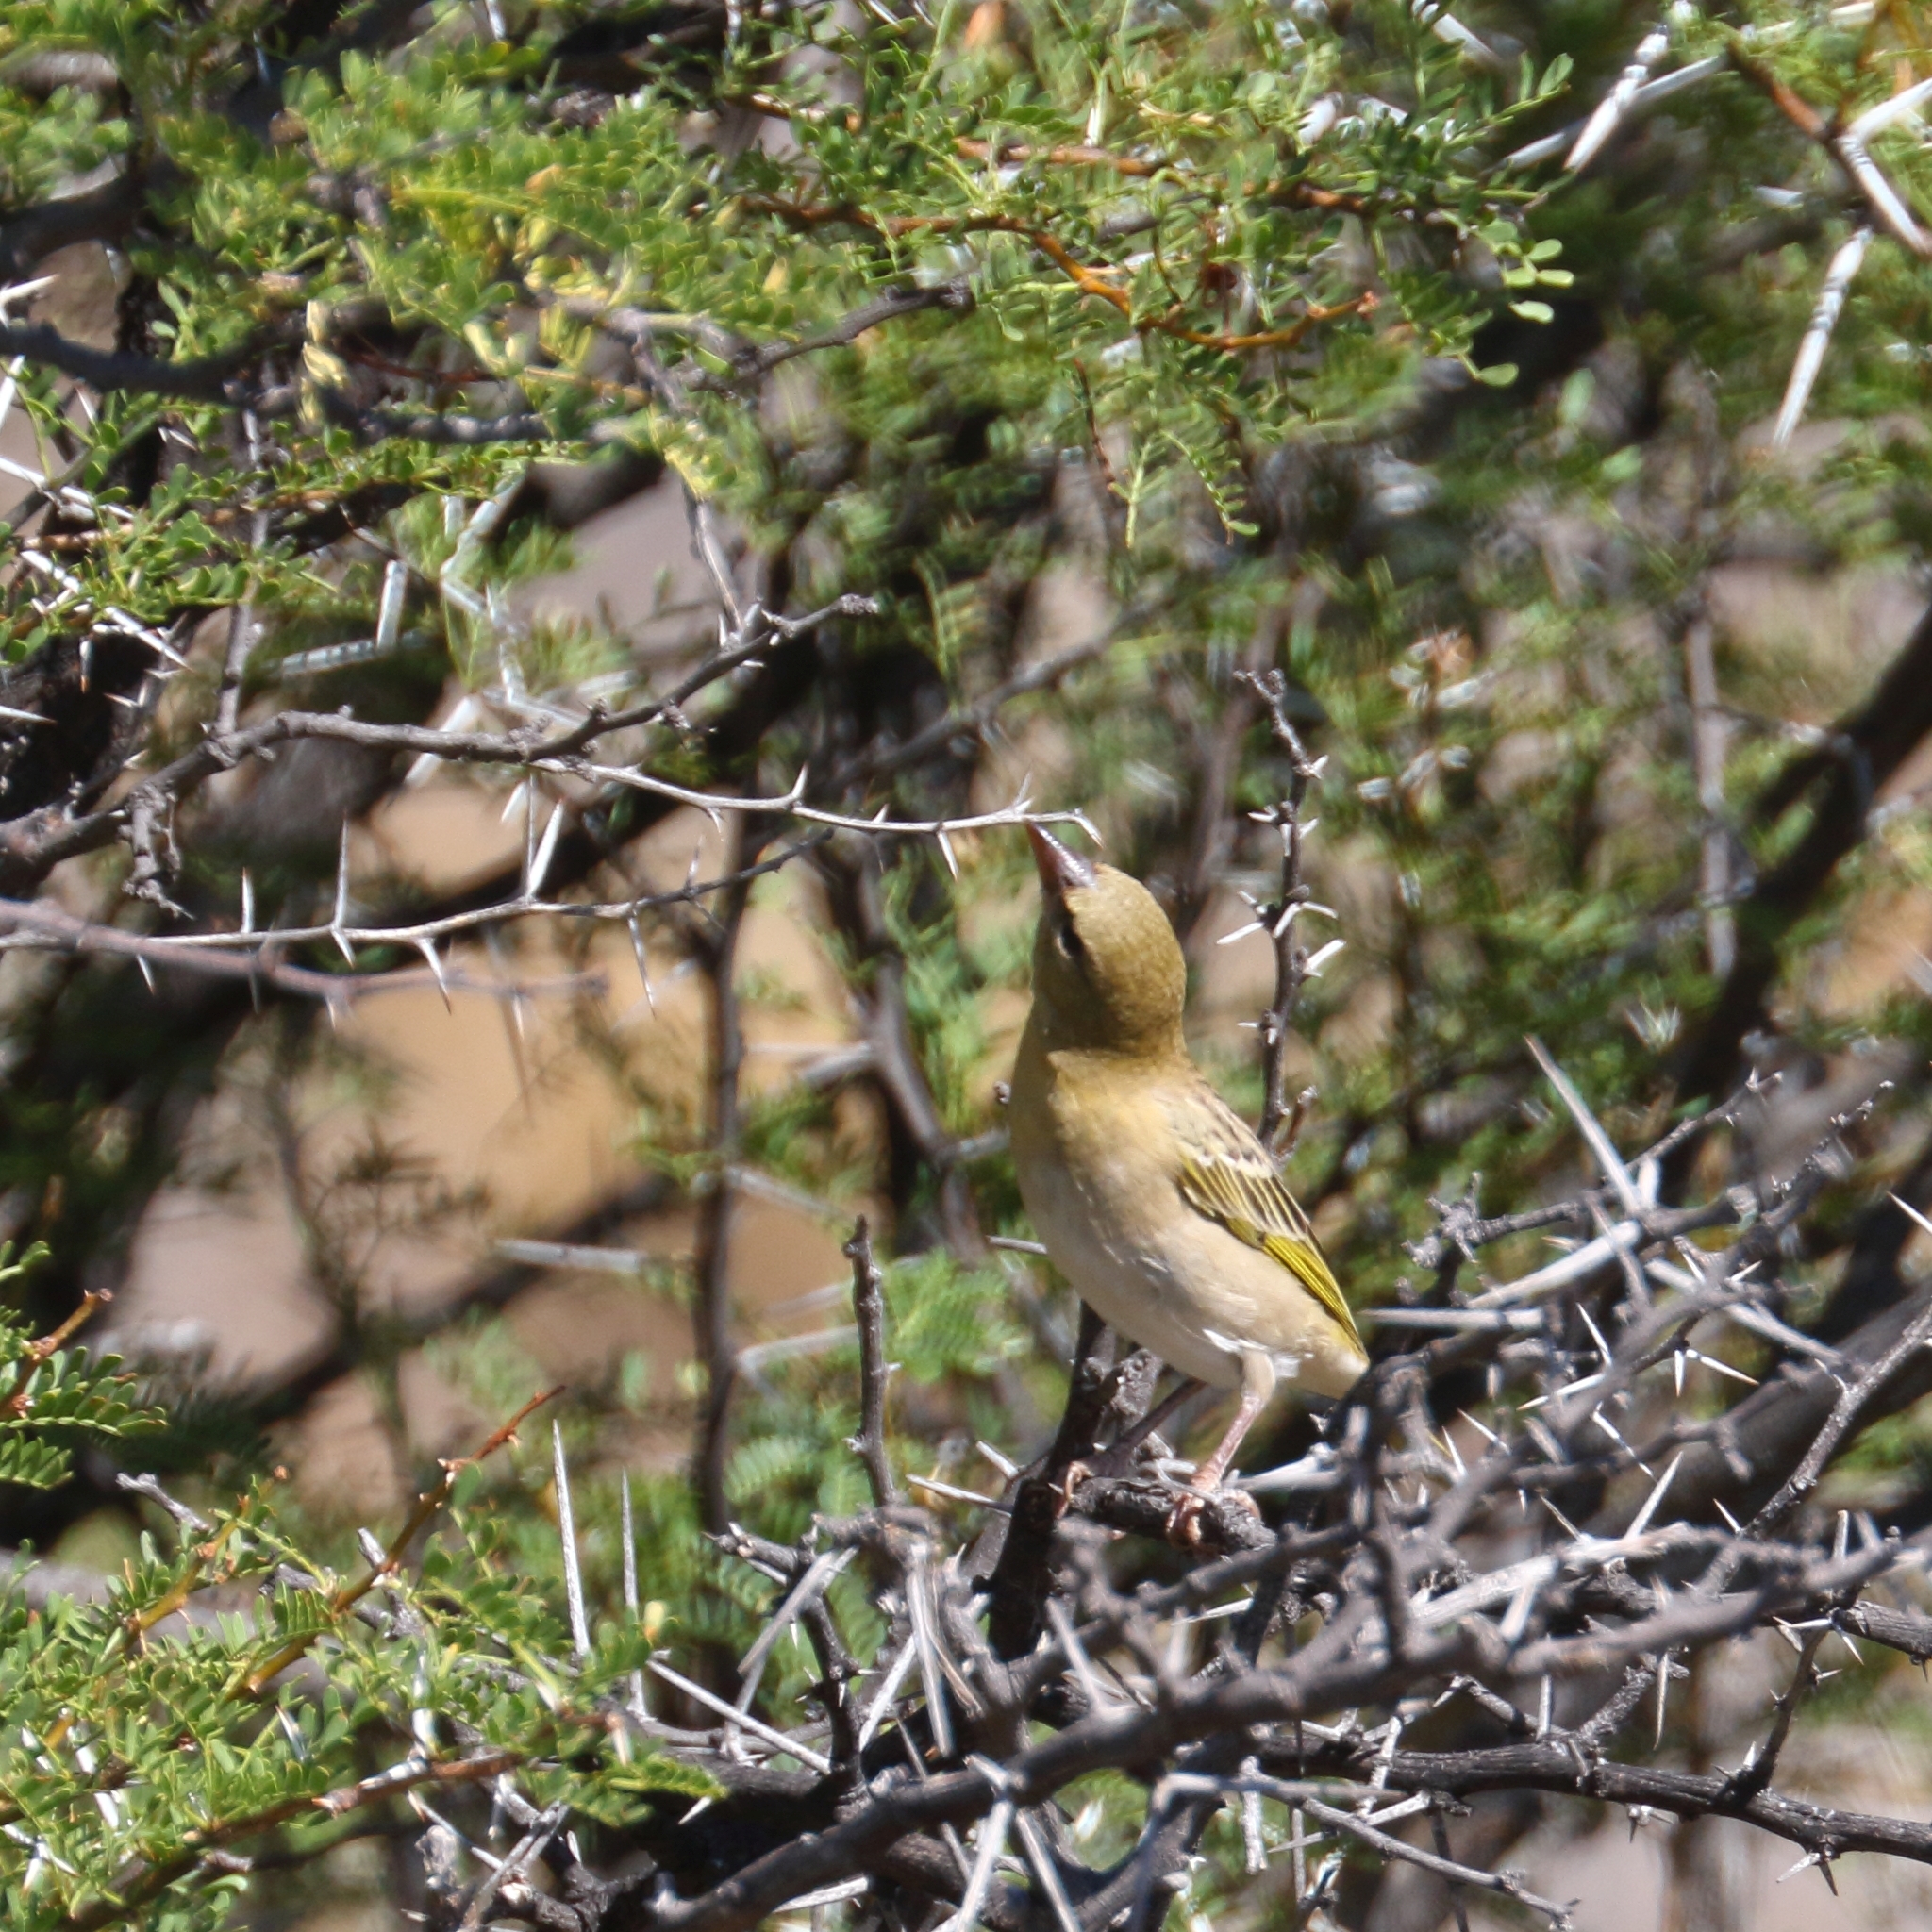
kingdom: Animalia
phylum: Chordata
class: Aves
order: Passeriformes
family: Ploceidae
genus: Ploceus
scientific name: Ploceus velatus
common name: Southern masked weaver
